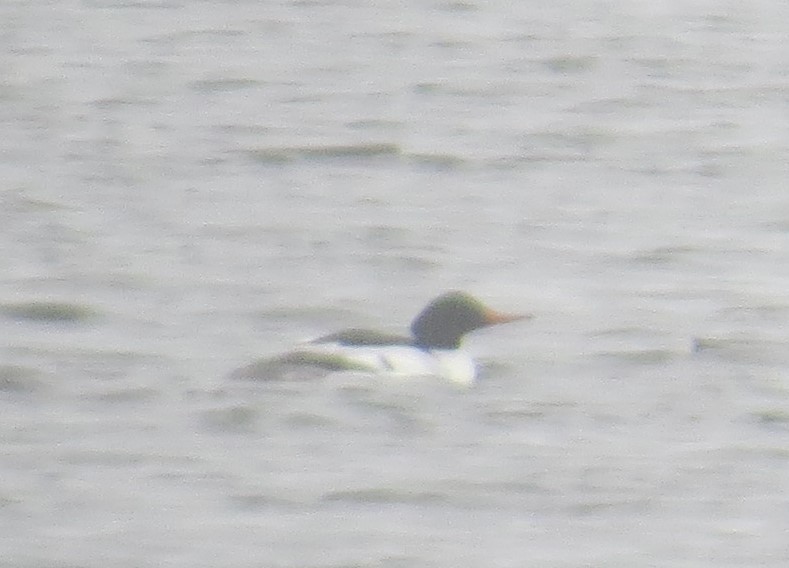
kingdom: Animalia
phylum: Chordata
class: Aves
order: Anseriformes
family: Anatidae
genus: Mergus
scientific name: Mergus merganser
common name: Common merganser
